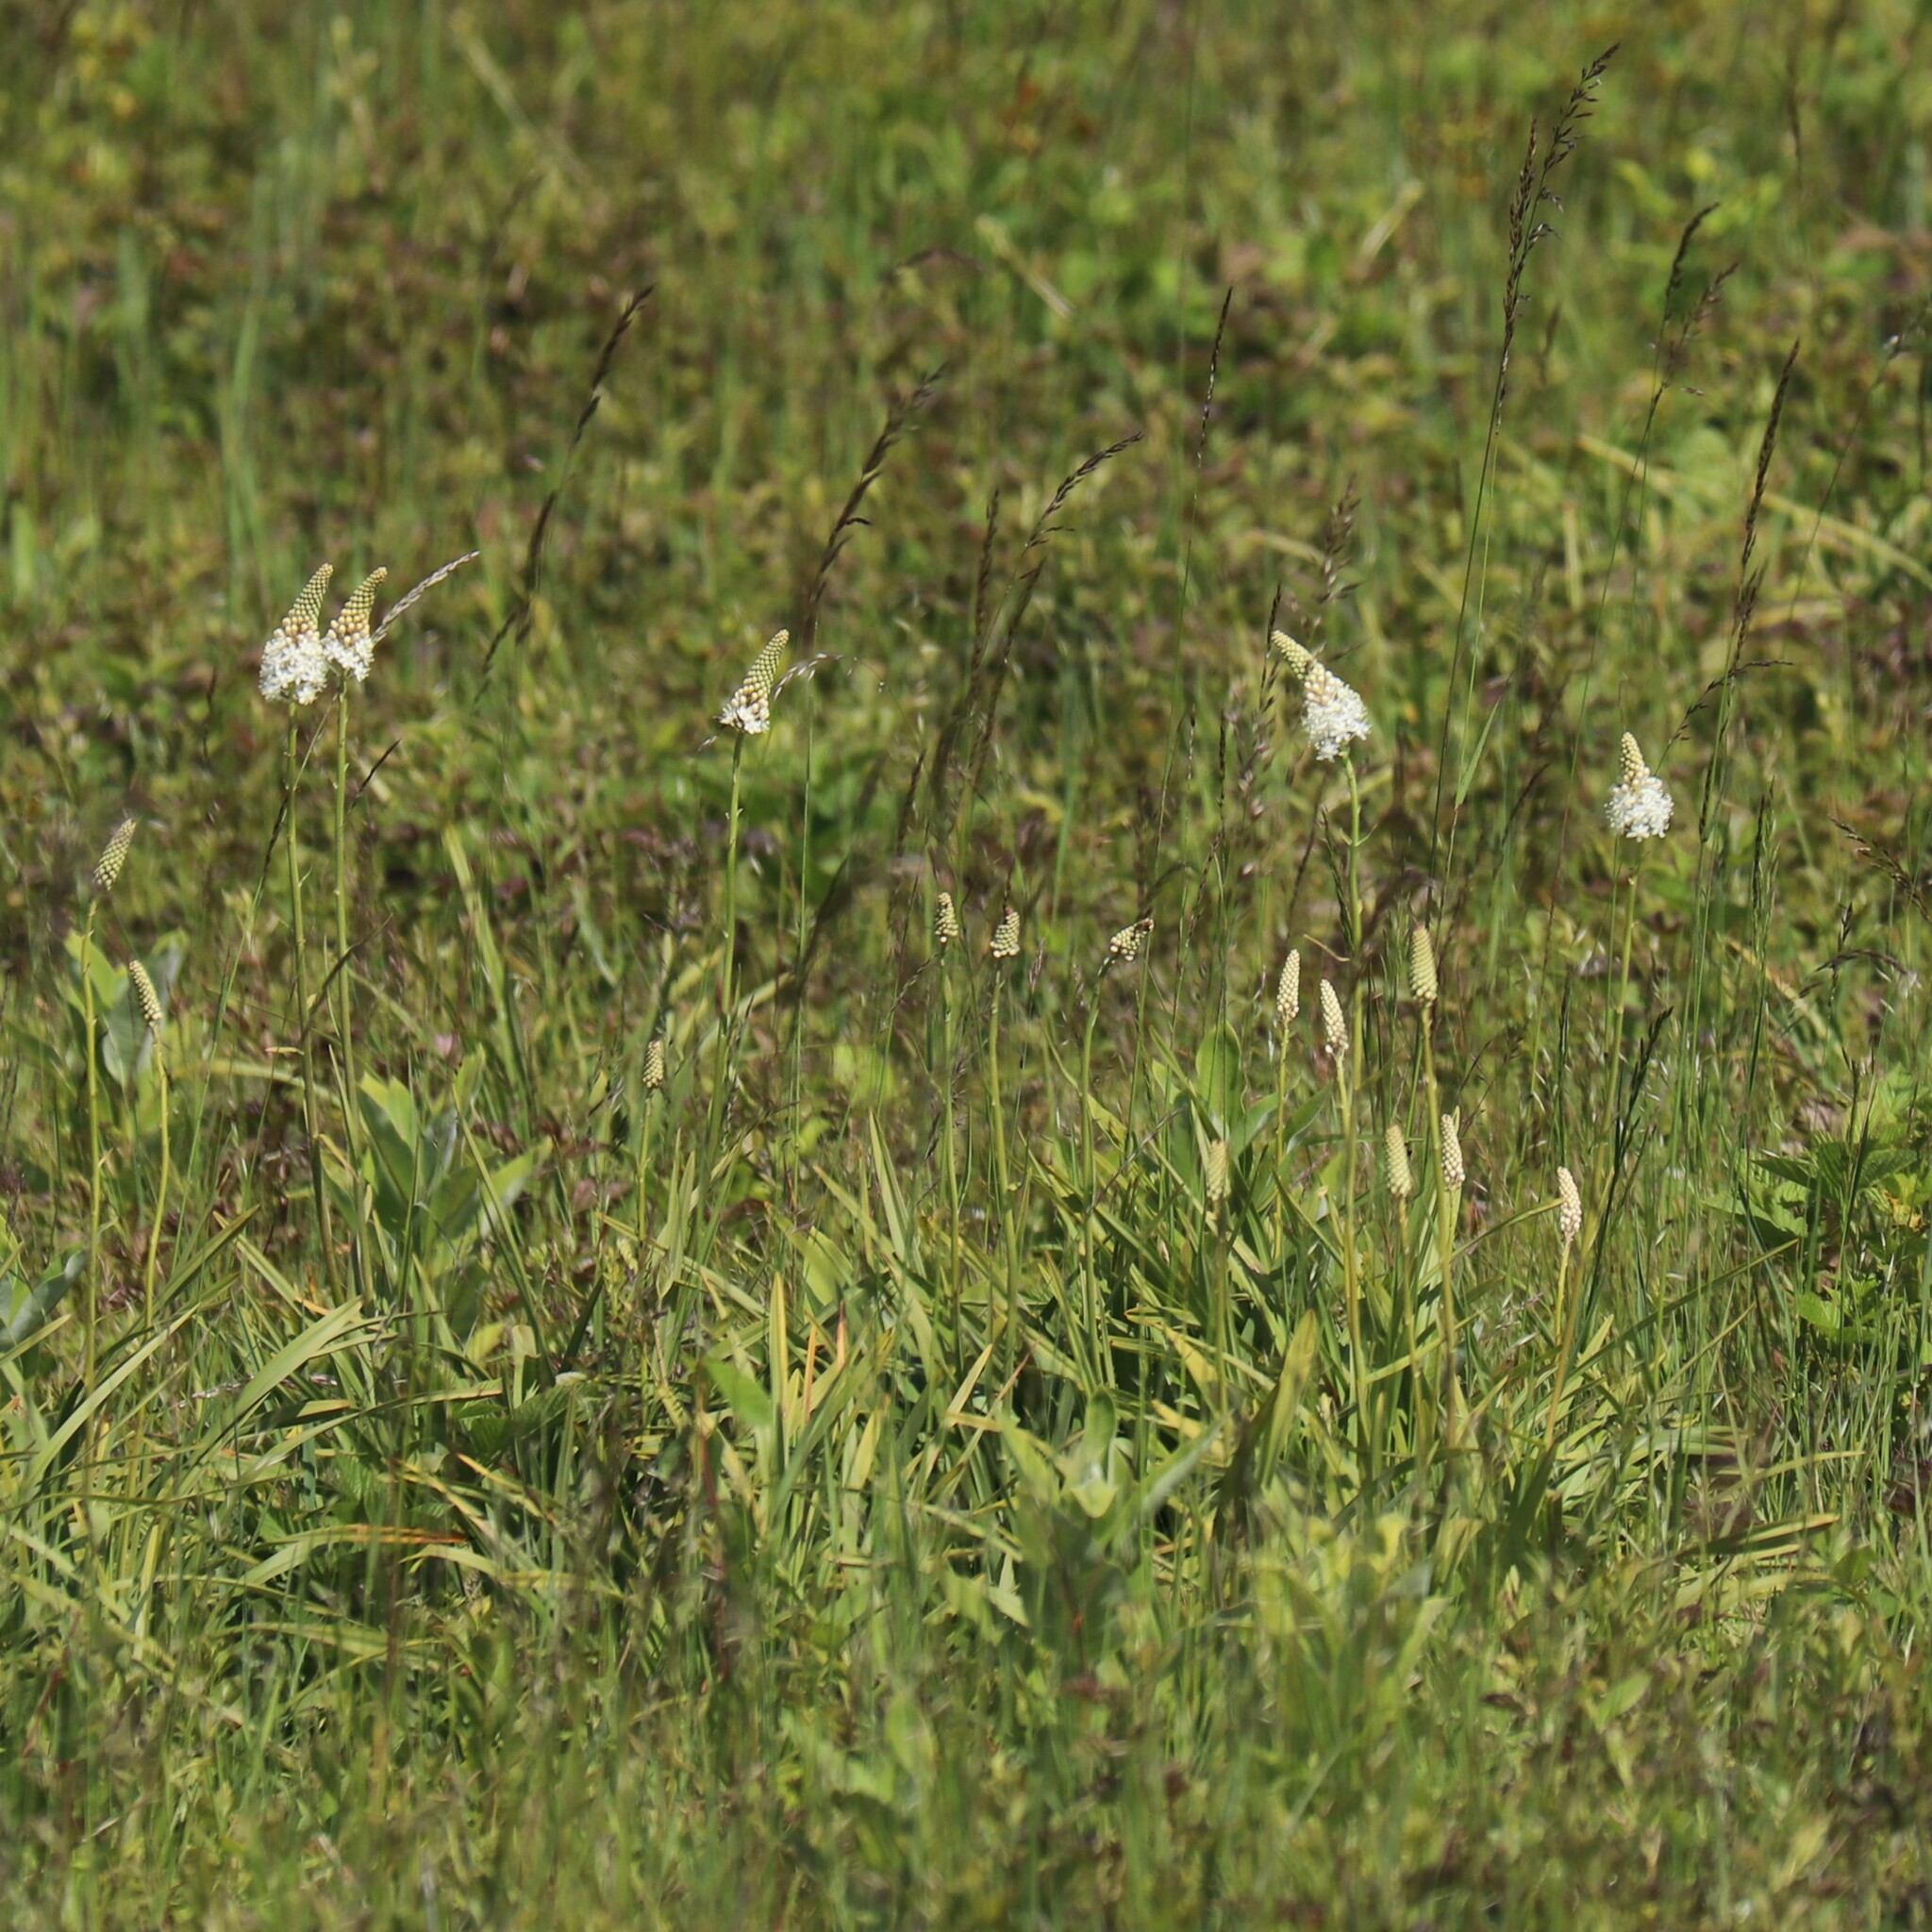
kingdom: Plantae
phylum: Tracheophyta
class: Liliopsida
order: Liliales
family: Melanthiaceae
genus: Amianthium
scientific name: Amianthium muscitoxicum
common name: Fly-poison
